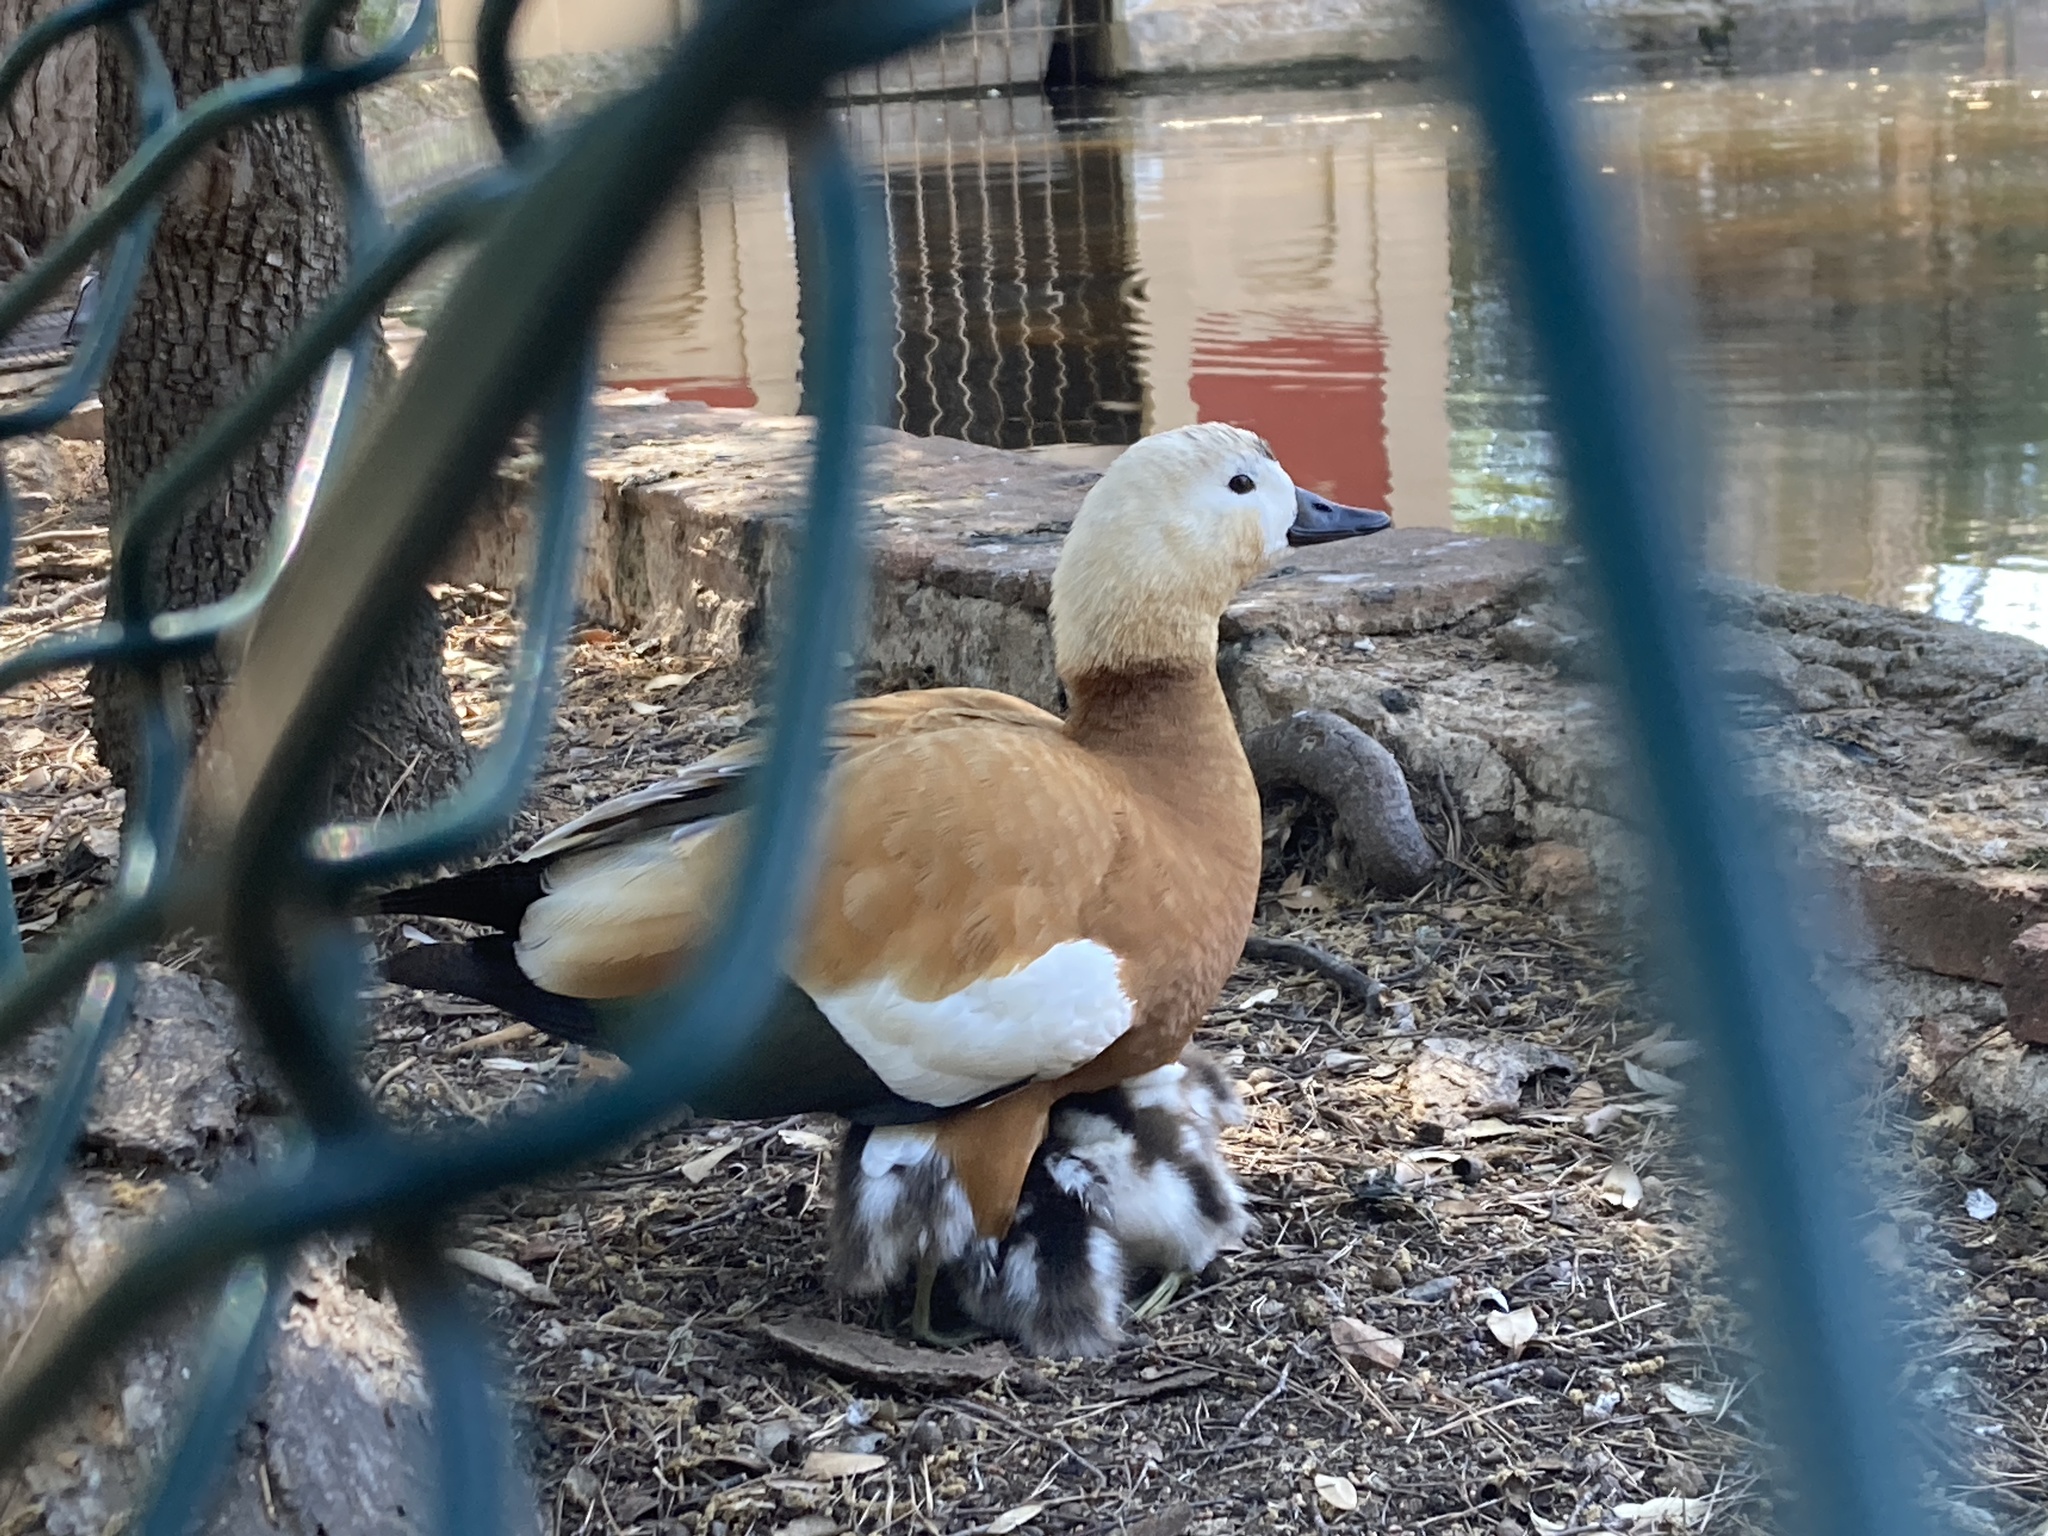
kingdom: Animalia
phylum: Chordata
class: Aves
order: Anseriformes
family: Anatidae
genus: Tadorna
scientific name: Tadorna ferruginea
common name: Ruddy shelduck
